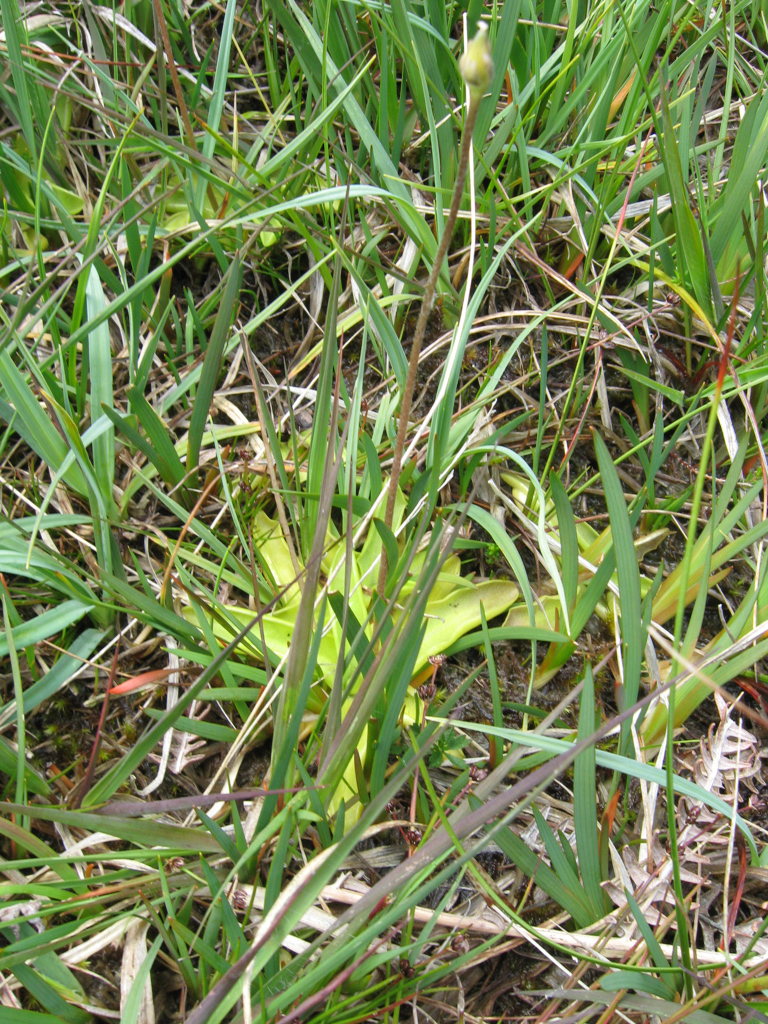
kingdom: Plantae
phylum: Tracheophyta
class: Magnoliopsida
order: Lamiales
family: Lentibulariaceae
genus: Pinguicula
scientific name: Pinguicula vulgaris
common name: Common butterwort
